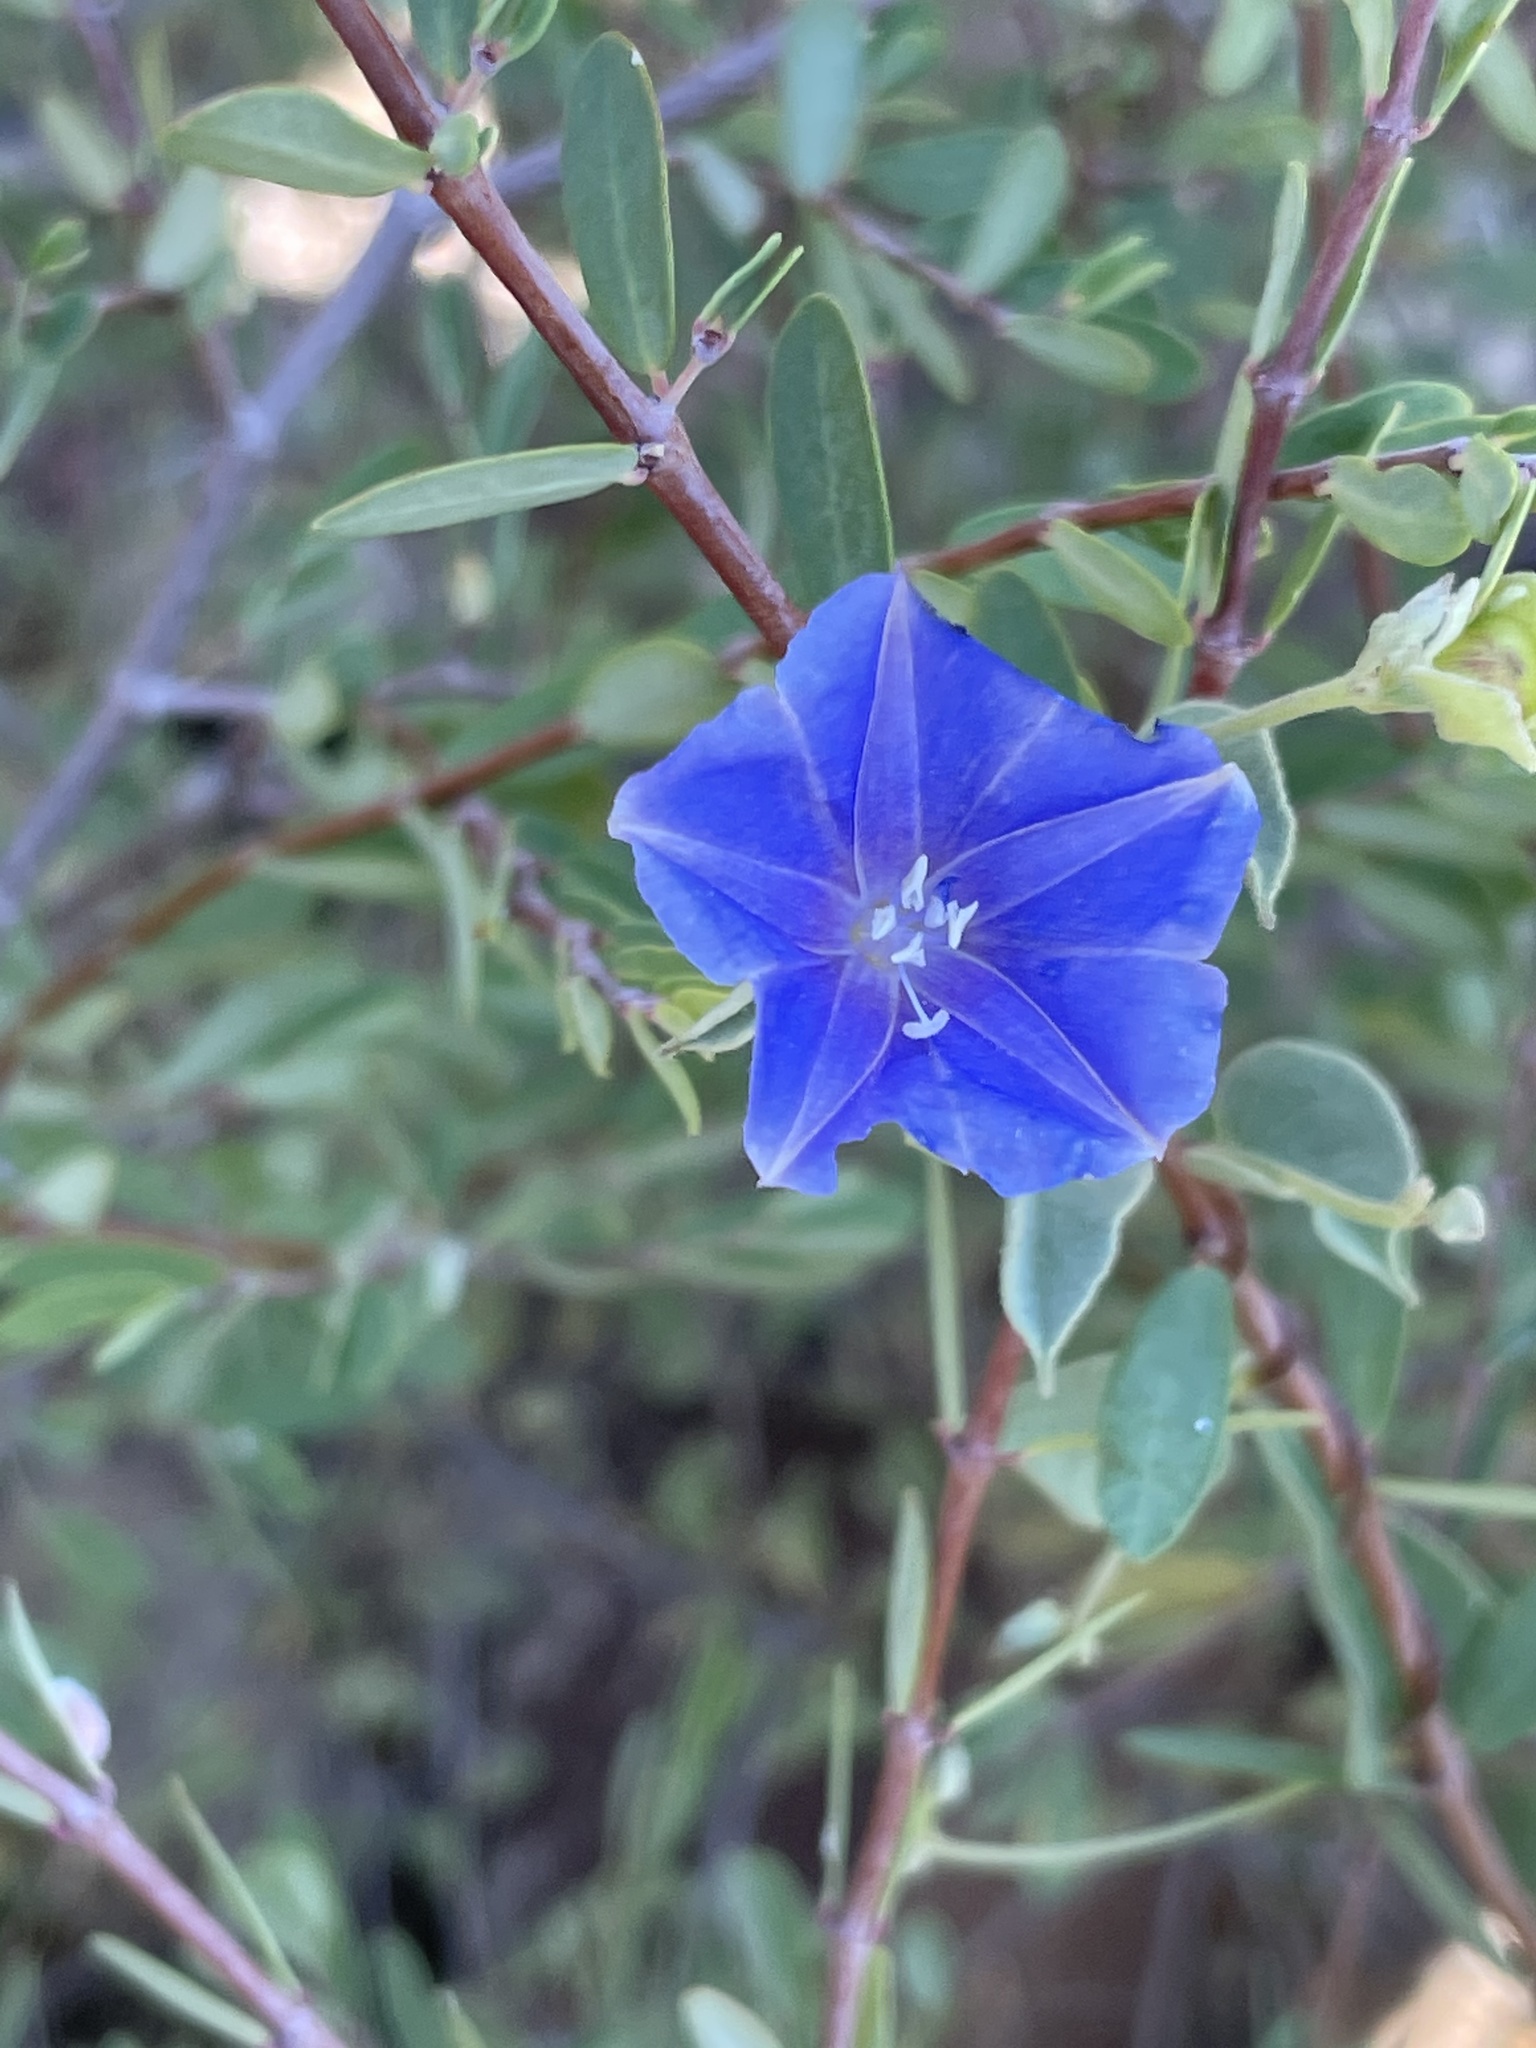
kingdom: Plantae
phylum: Tracheophyta
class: Magnoliopsida
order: Solanales
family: Convolvulaceae
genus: Jacquemontia
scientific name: Jacquemontia abutiloides
